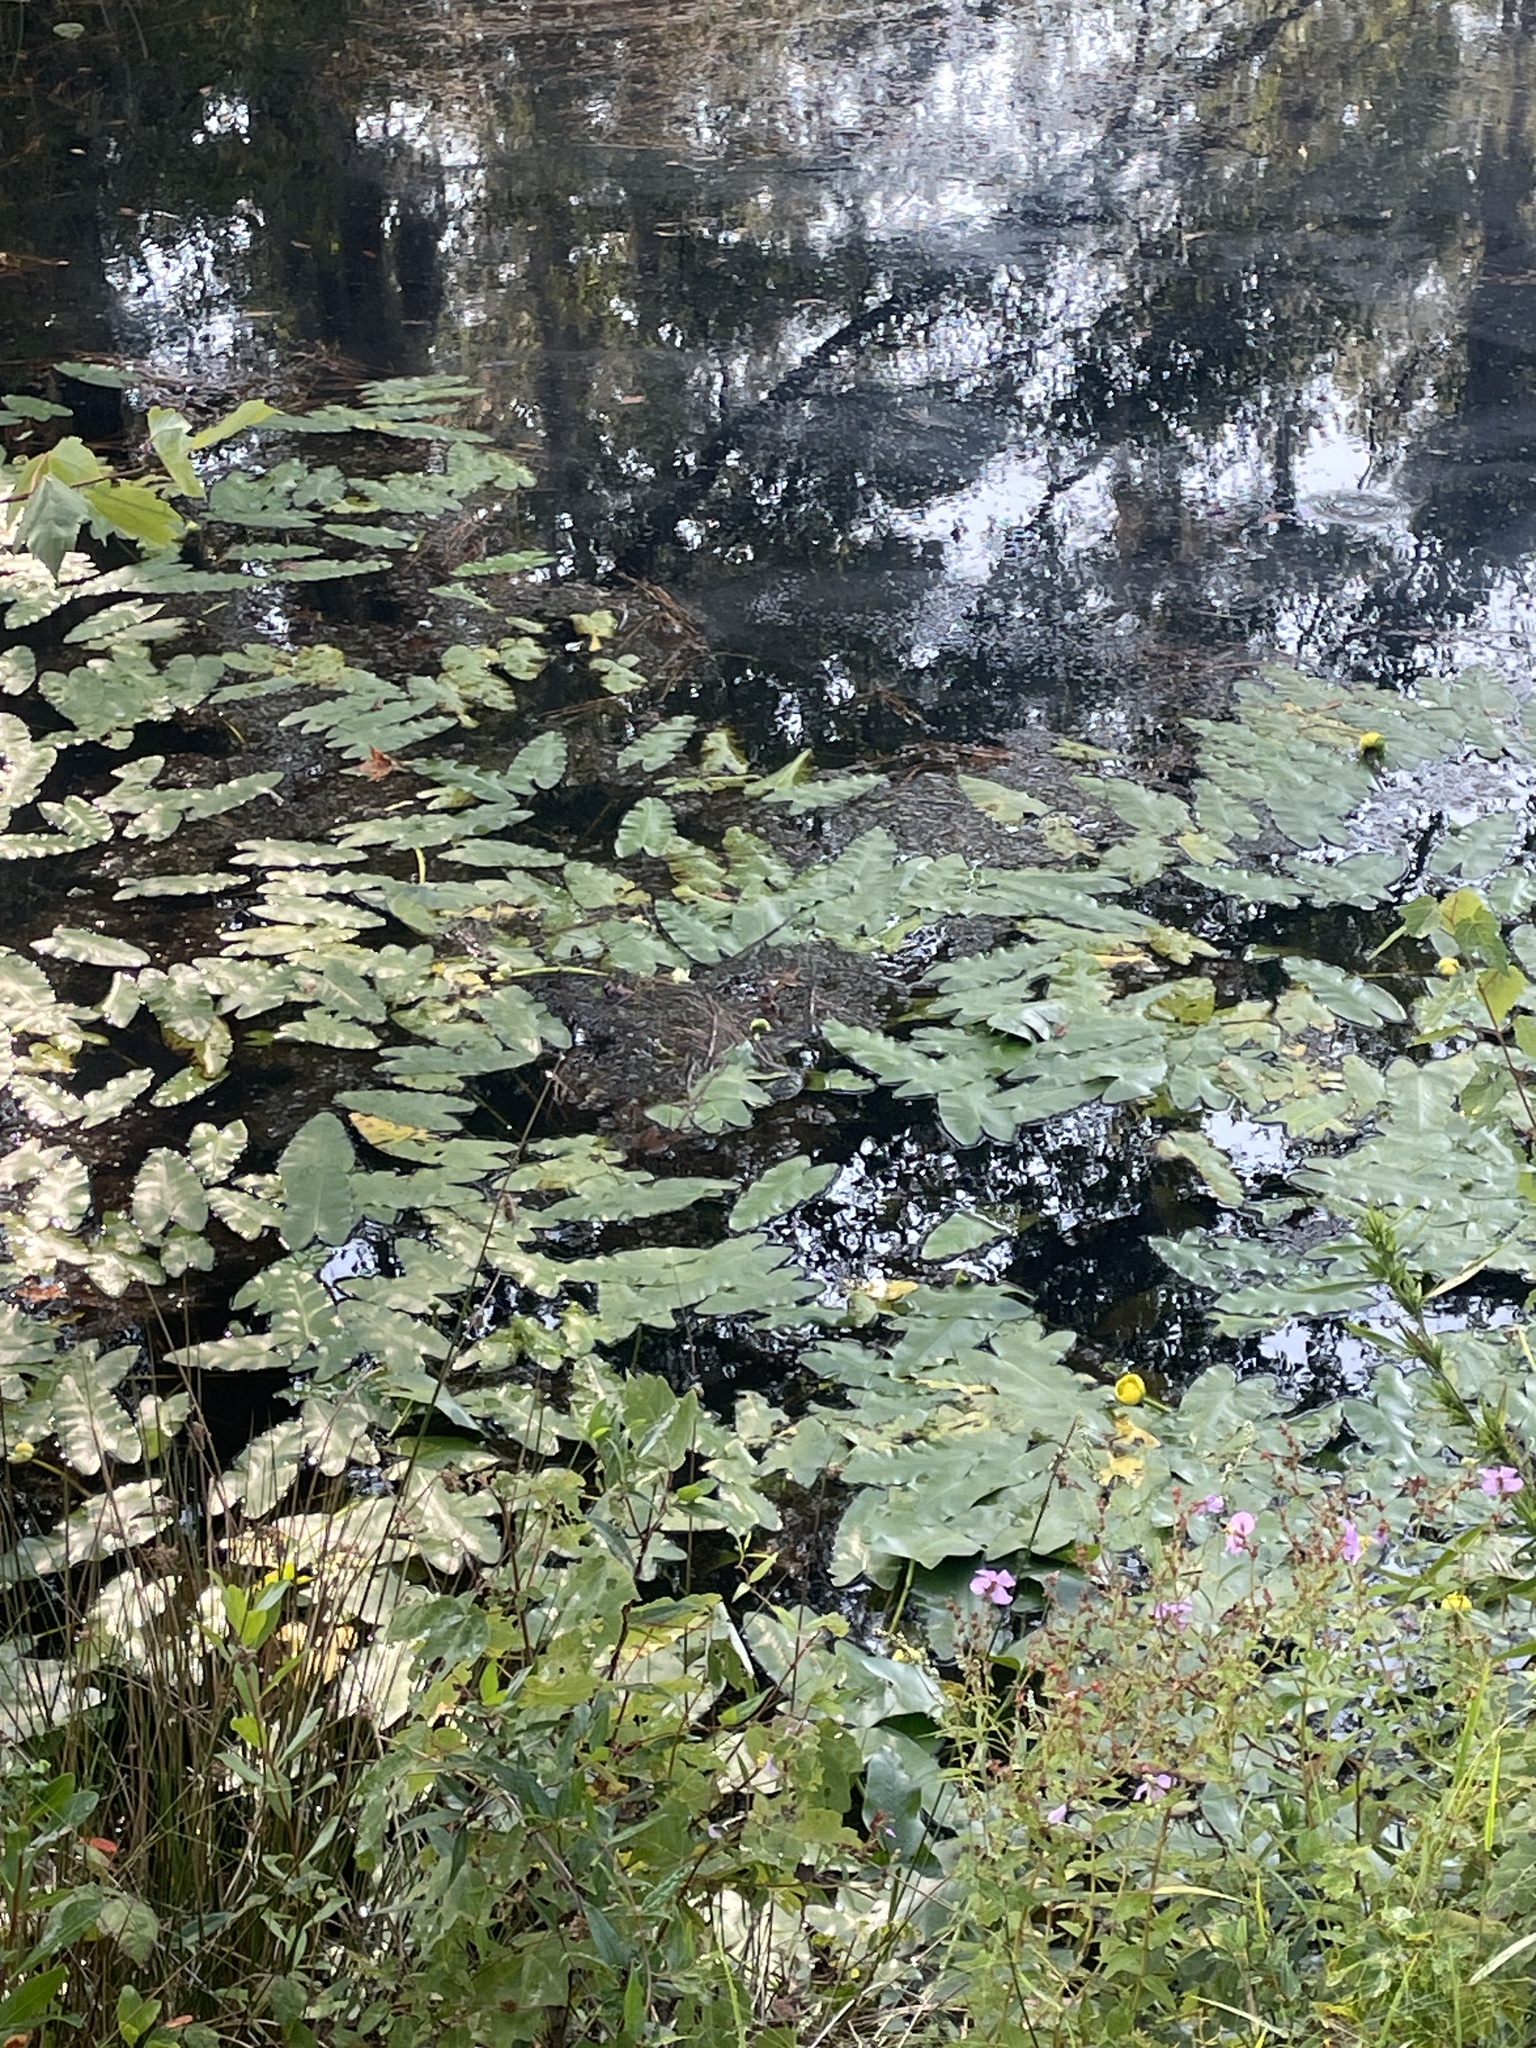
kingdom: Plantae
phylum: Tracheophyta
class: Magnoliopsida
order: Nymphaeales
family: Nymphaeaceae
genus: Nuphar
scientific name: Nuphar sagittifolia
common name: Cape fear spatterdock
